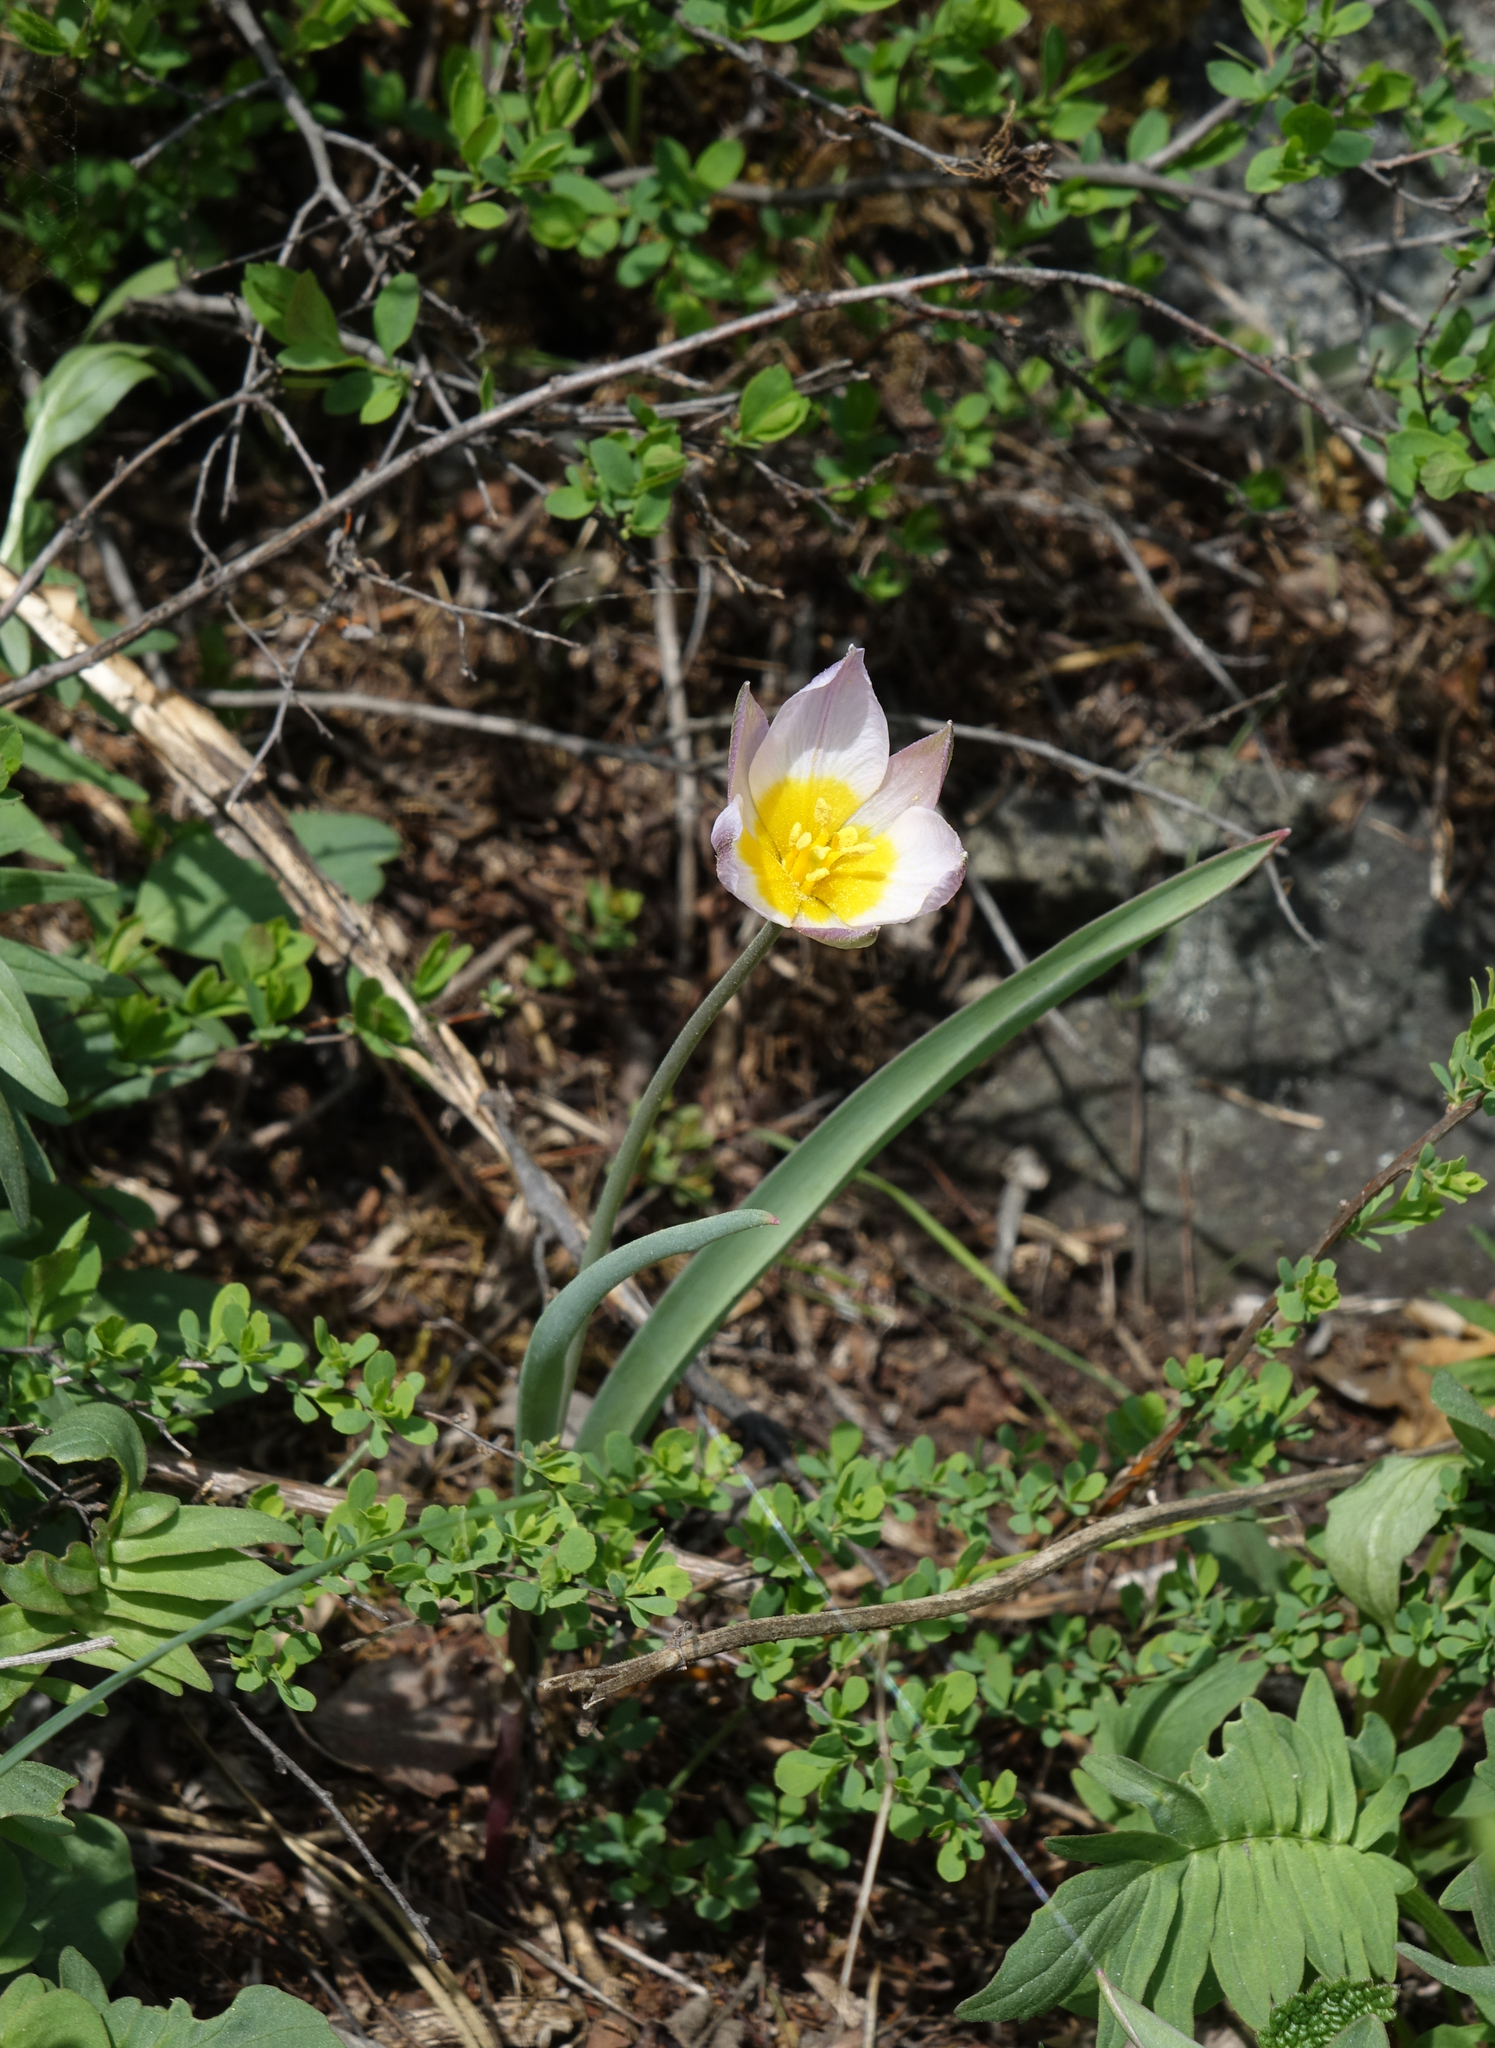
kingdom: Plantae
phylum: Tracheophyta
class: Liliopsida
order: Liliales
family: Liliaceae
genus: Tulipa
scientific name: Tulipa patens
